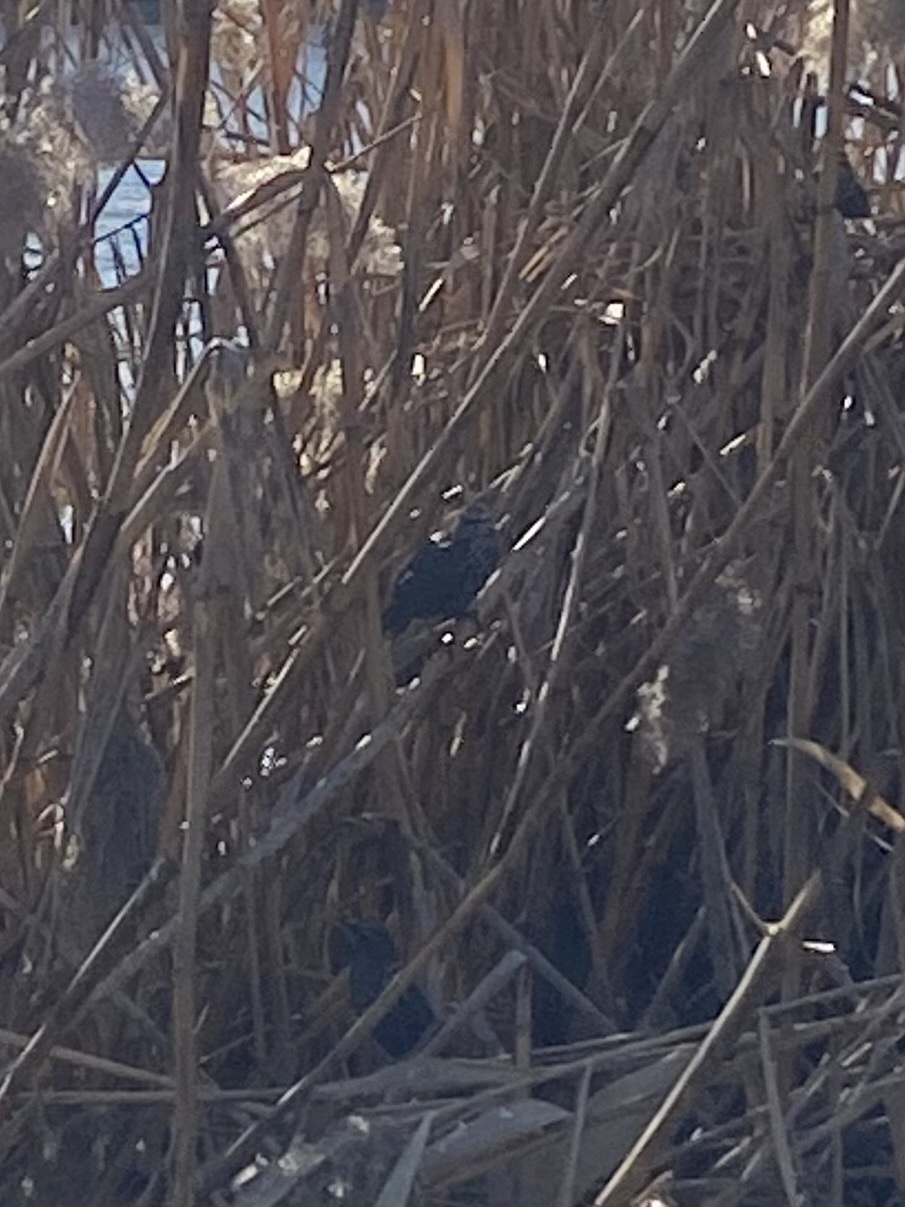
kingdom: Animalia
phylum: Chordata
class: Aves
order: Passeriformes
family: Sturnidae
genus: Sturnus
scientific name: Sturnus vulgaris
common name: Common starling
